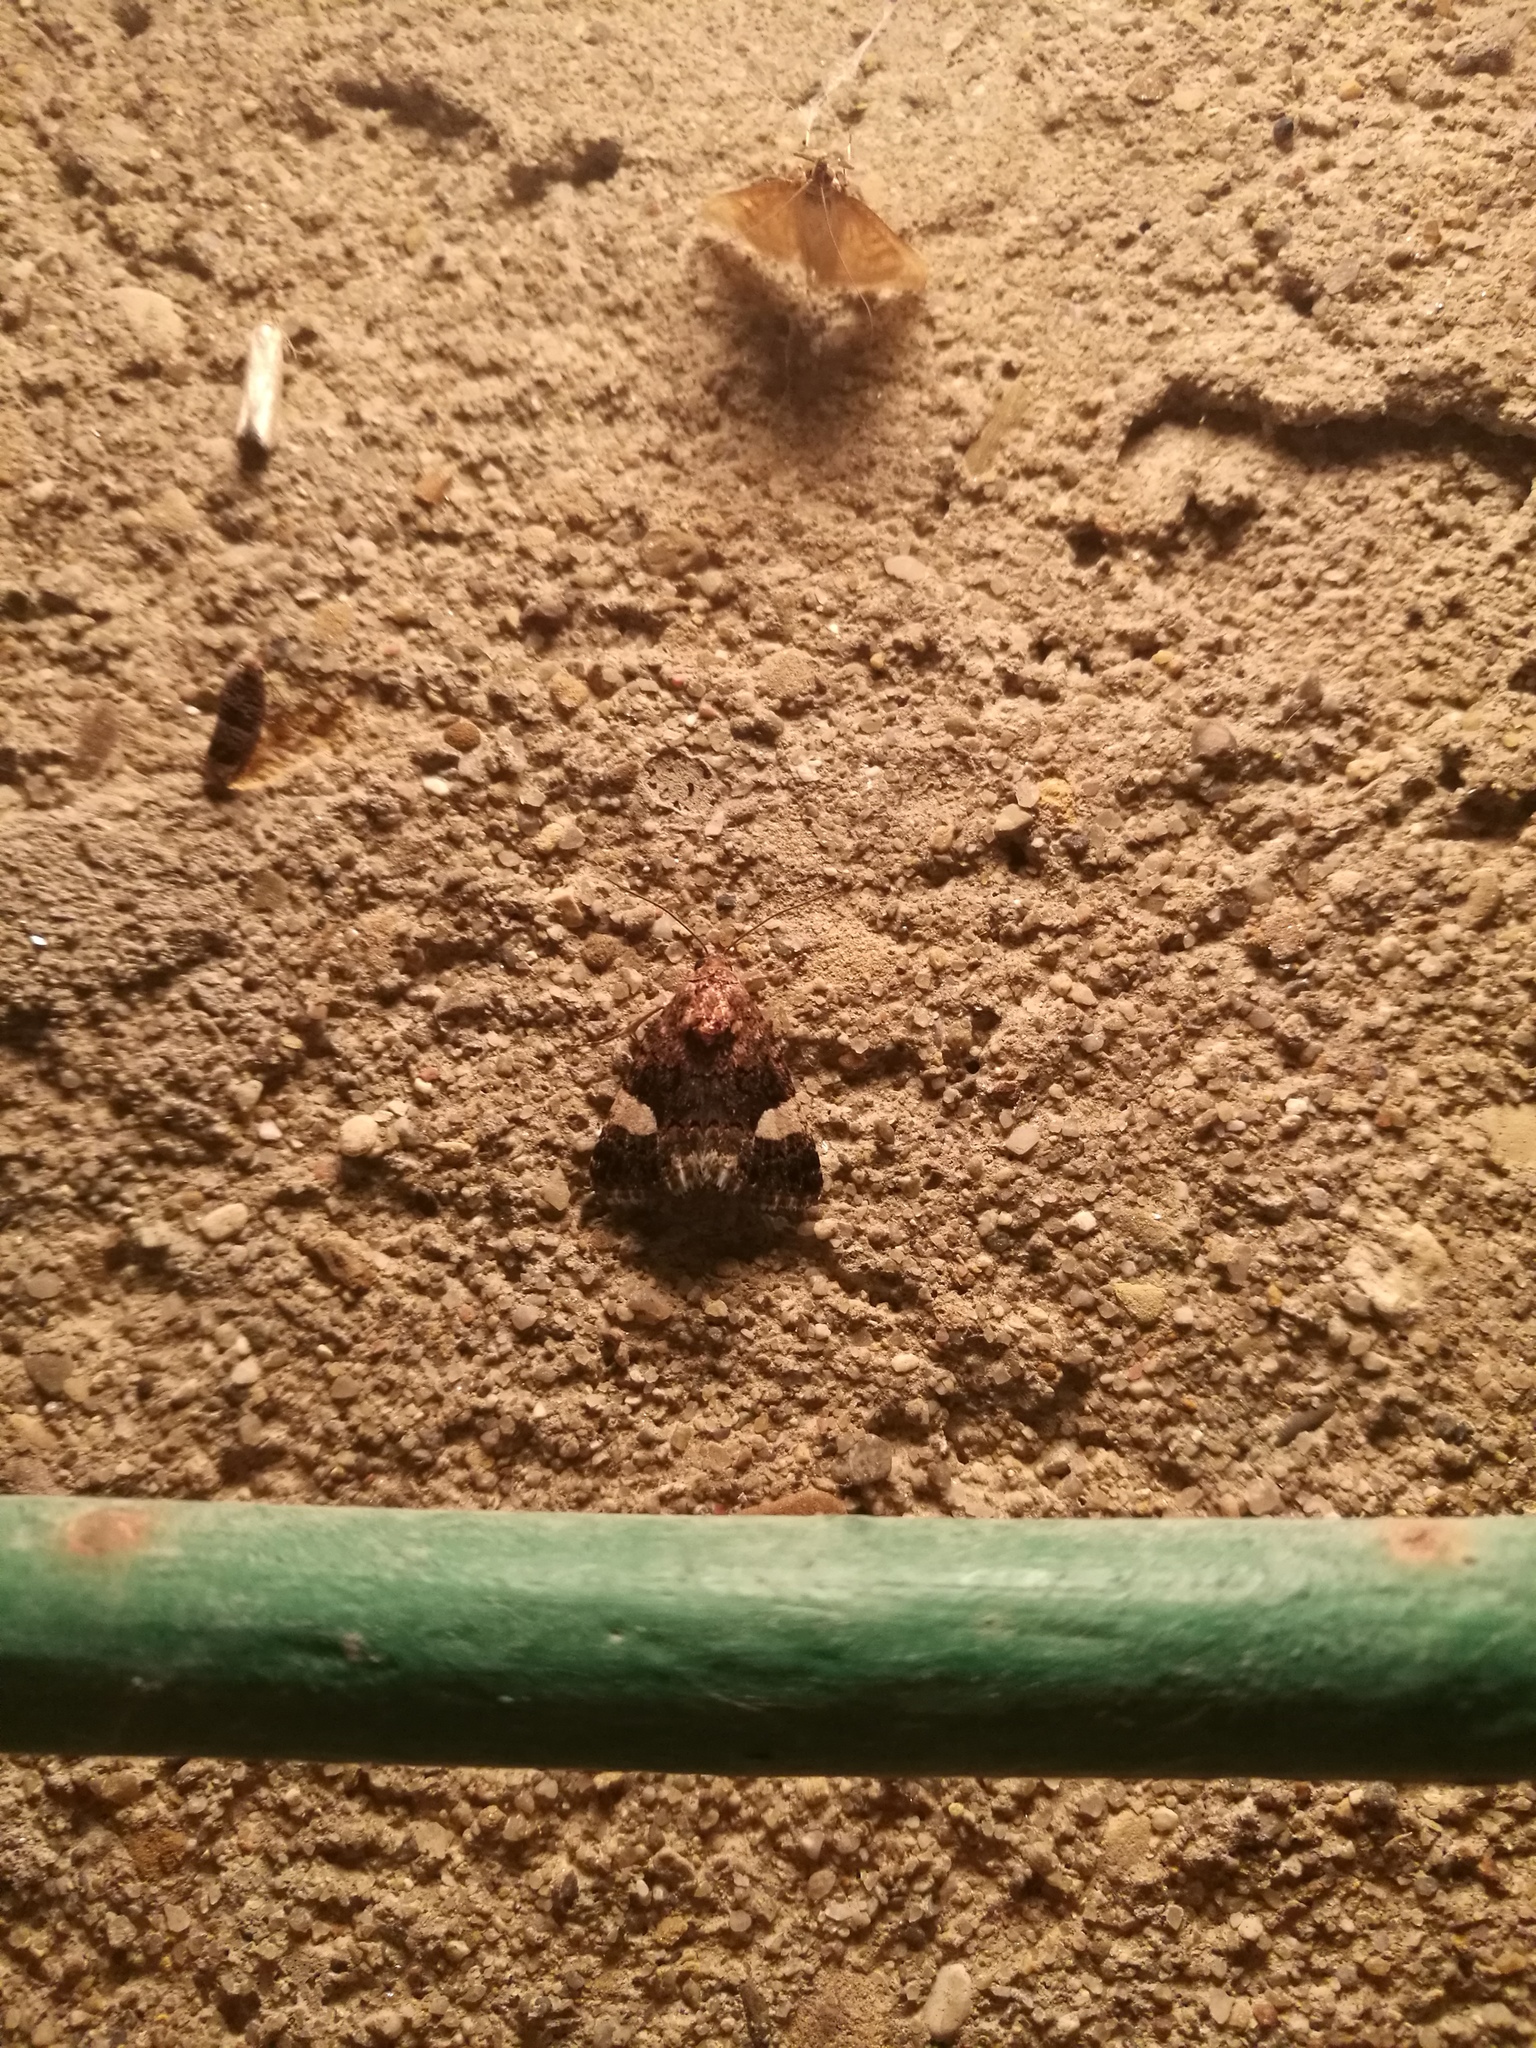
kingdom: Animalia
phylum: Arthropoda
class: Insecta
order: Lepidoptera
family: Erebidae
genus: Tyta
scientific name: Tyta luctuosa
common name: Four-spotted
